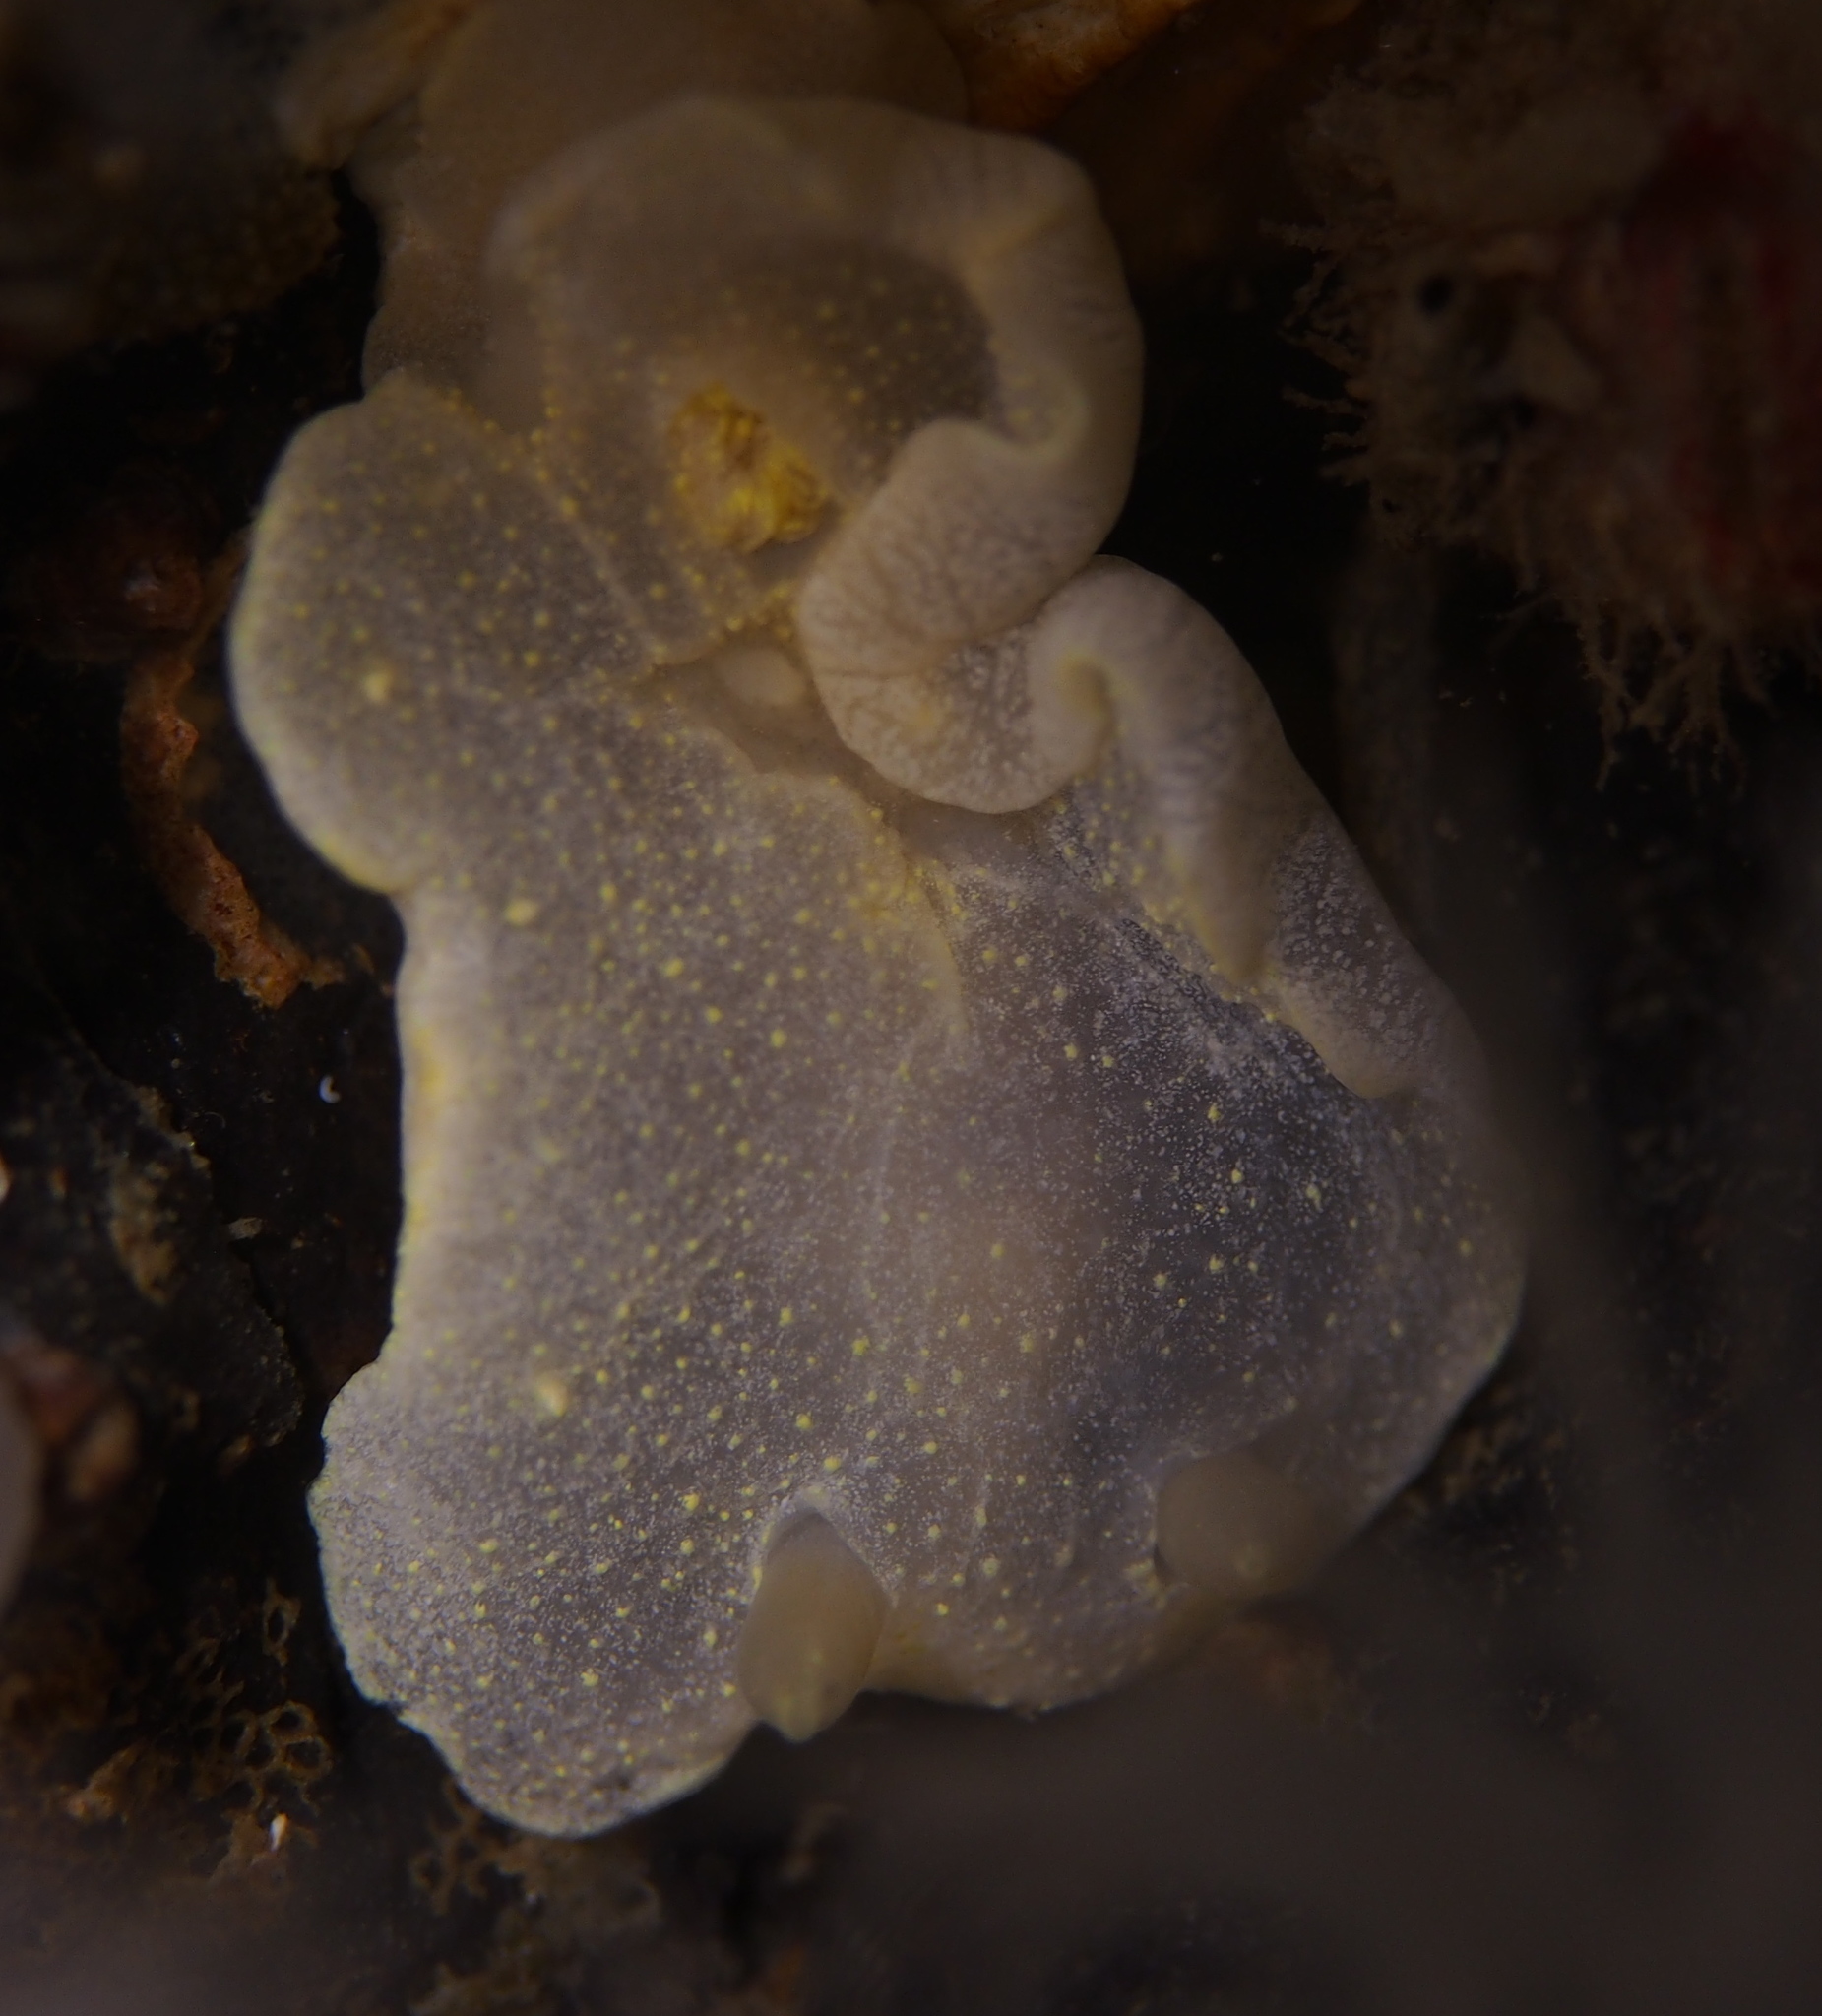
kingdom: Animalia
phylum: Mollusca
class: Gastropoda
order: Nudibranchia
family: Cadlinidae
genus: Cadlina
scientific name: Cadlina laevis
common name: White atlantic cadlina
